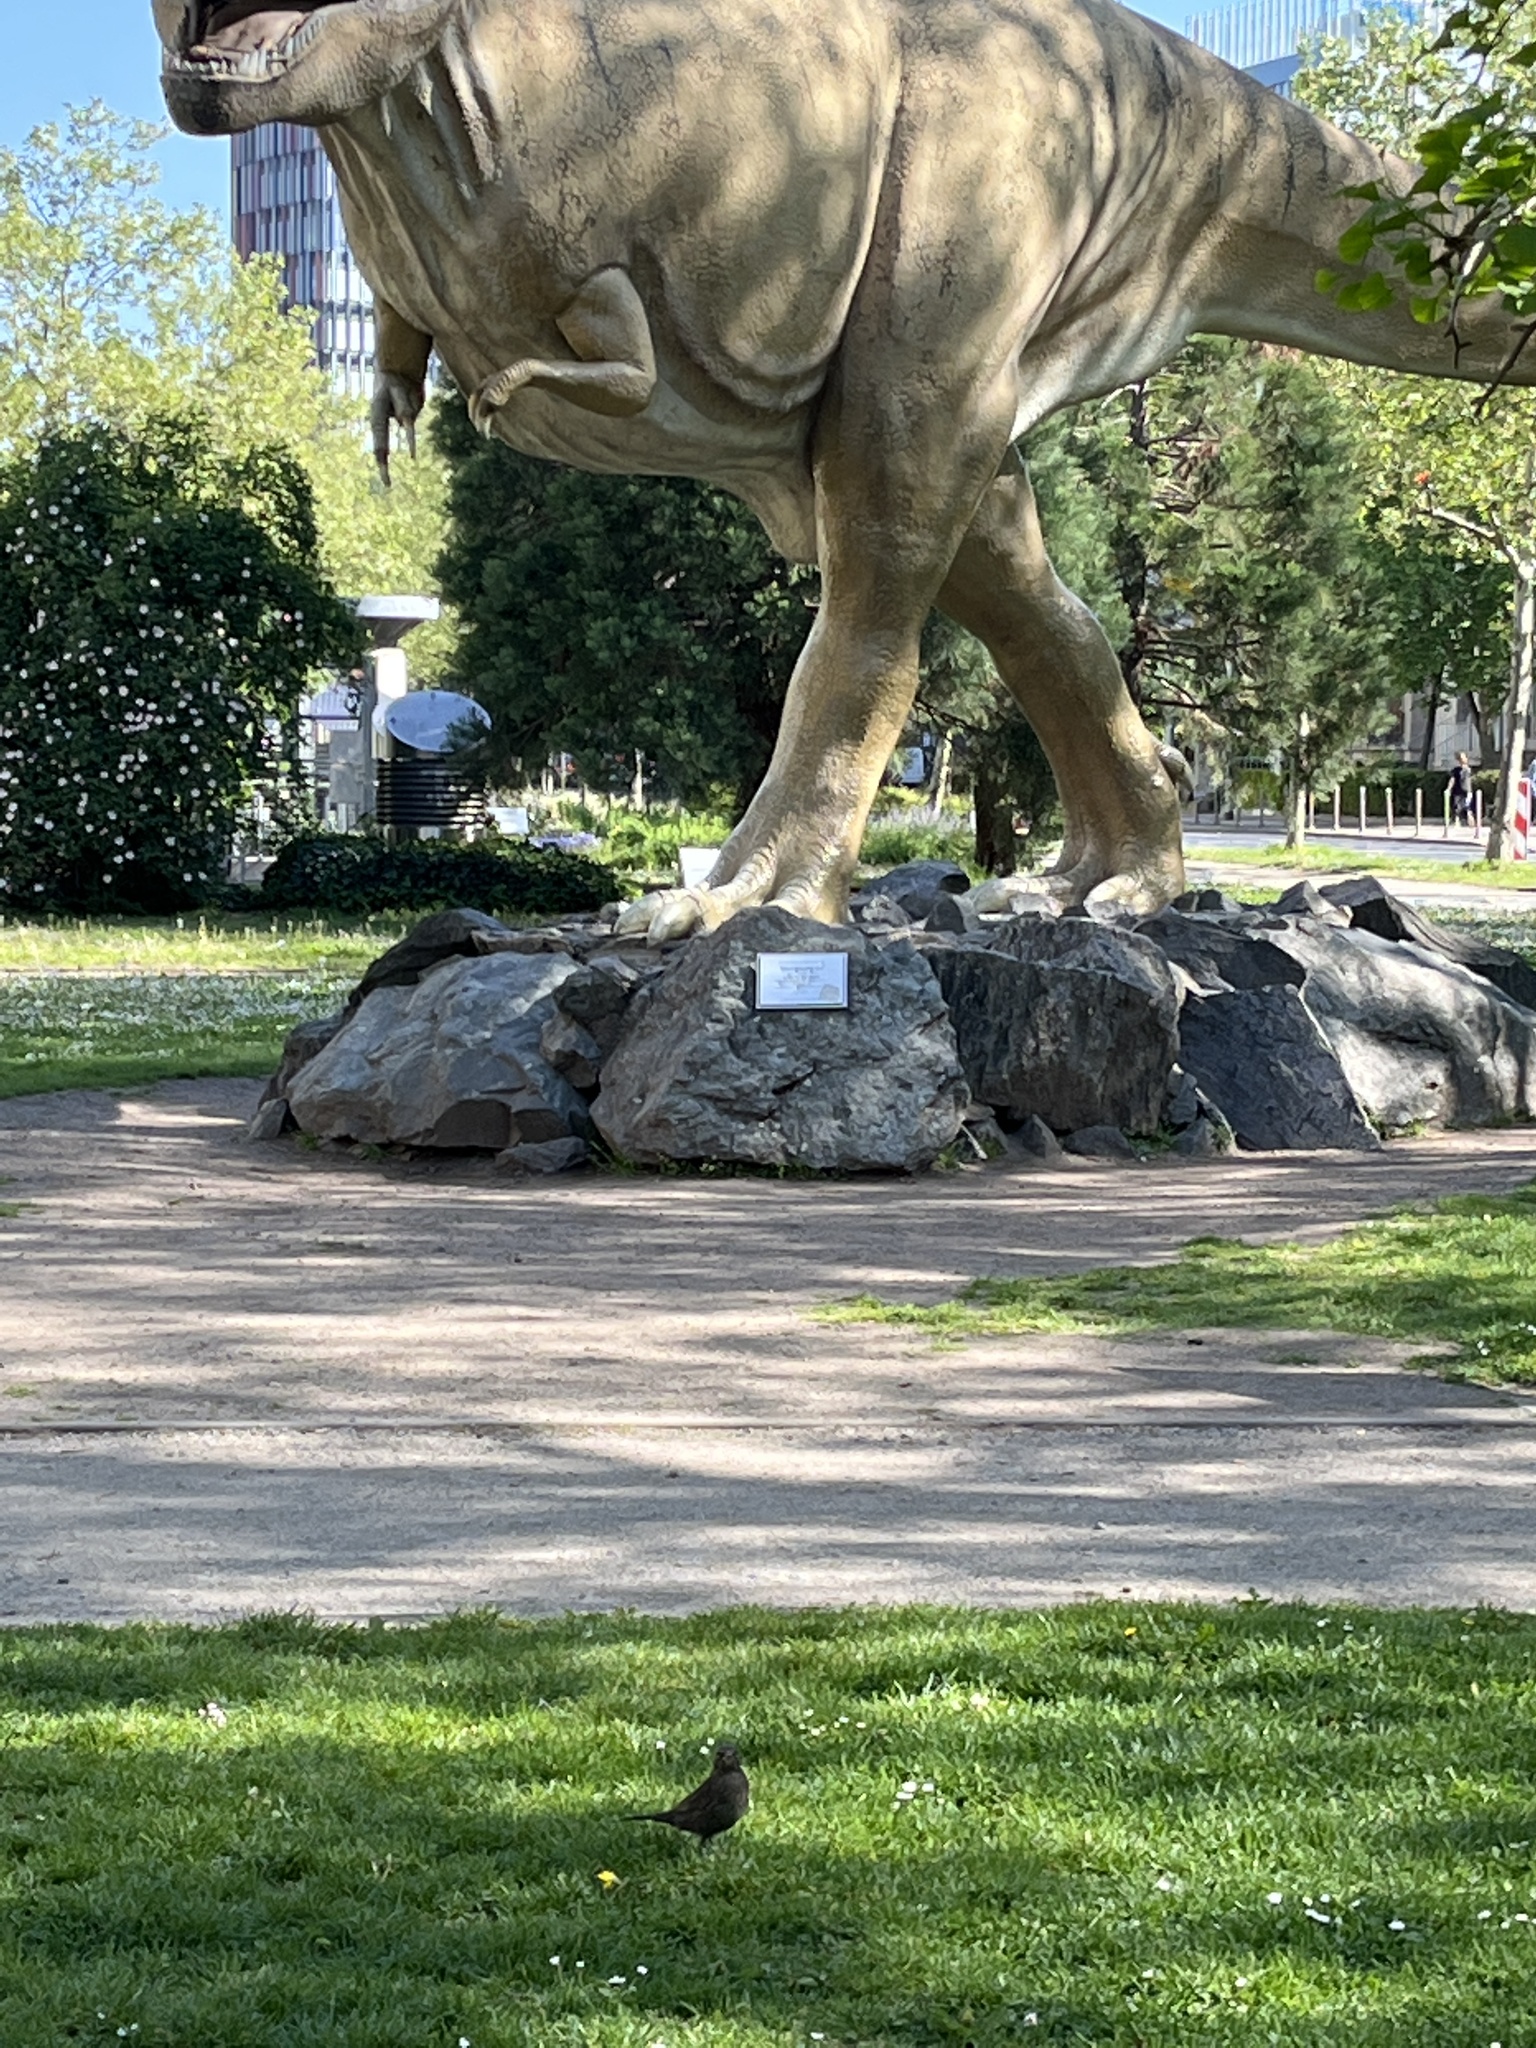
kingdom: Animalia
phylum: Chordata
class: Aves
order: Passeriformes
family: Turdidae
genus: Turdus
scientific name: Turdus merula
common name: Common blackbird
